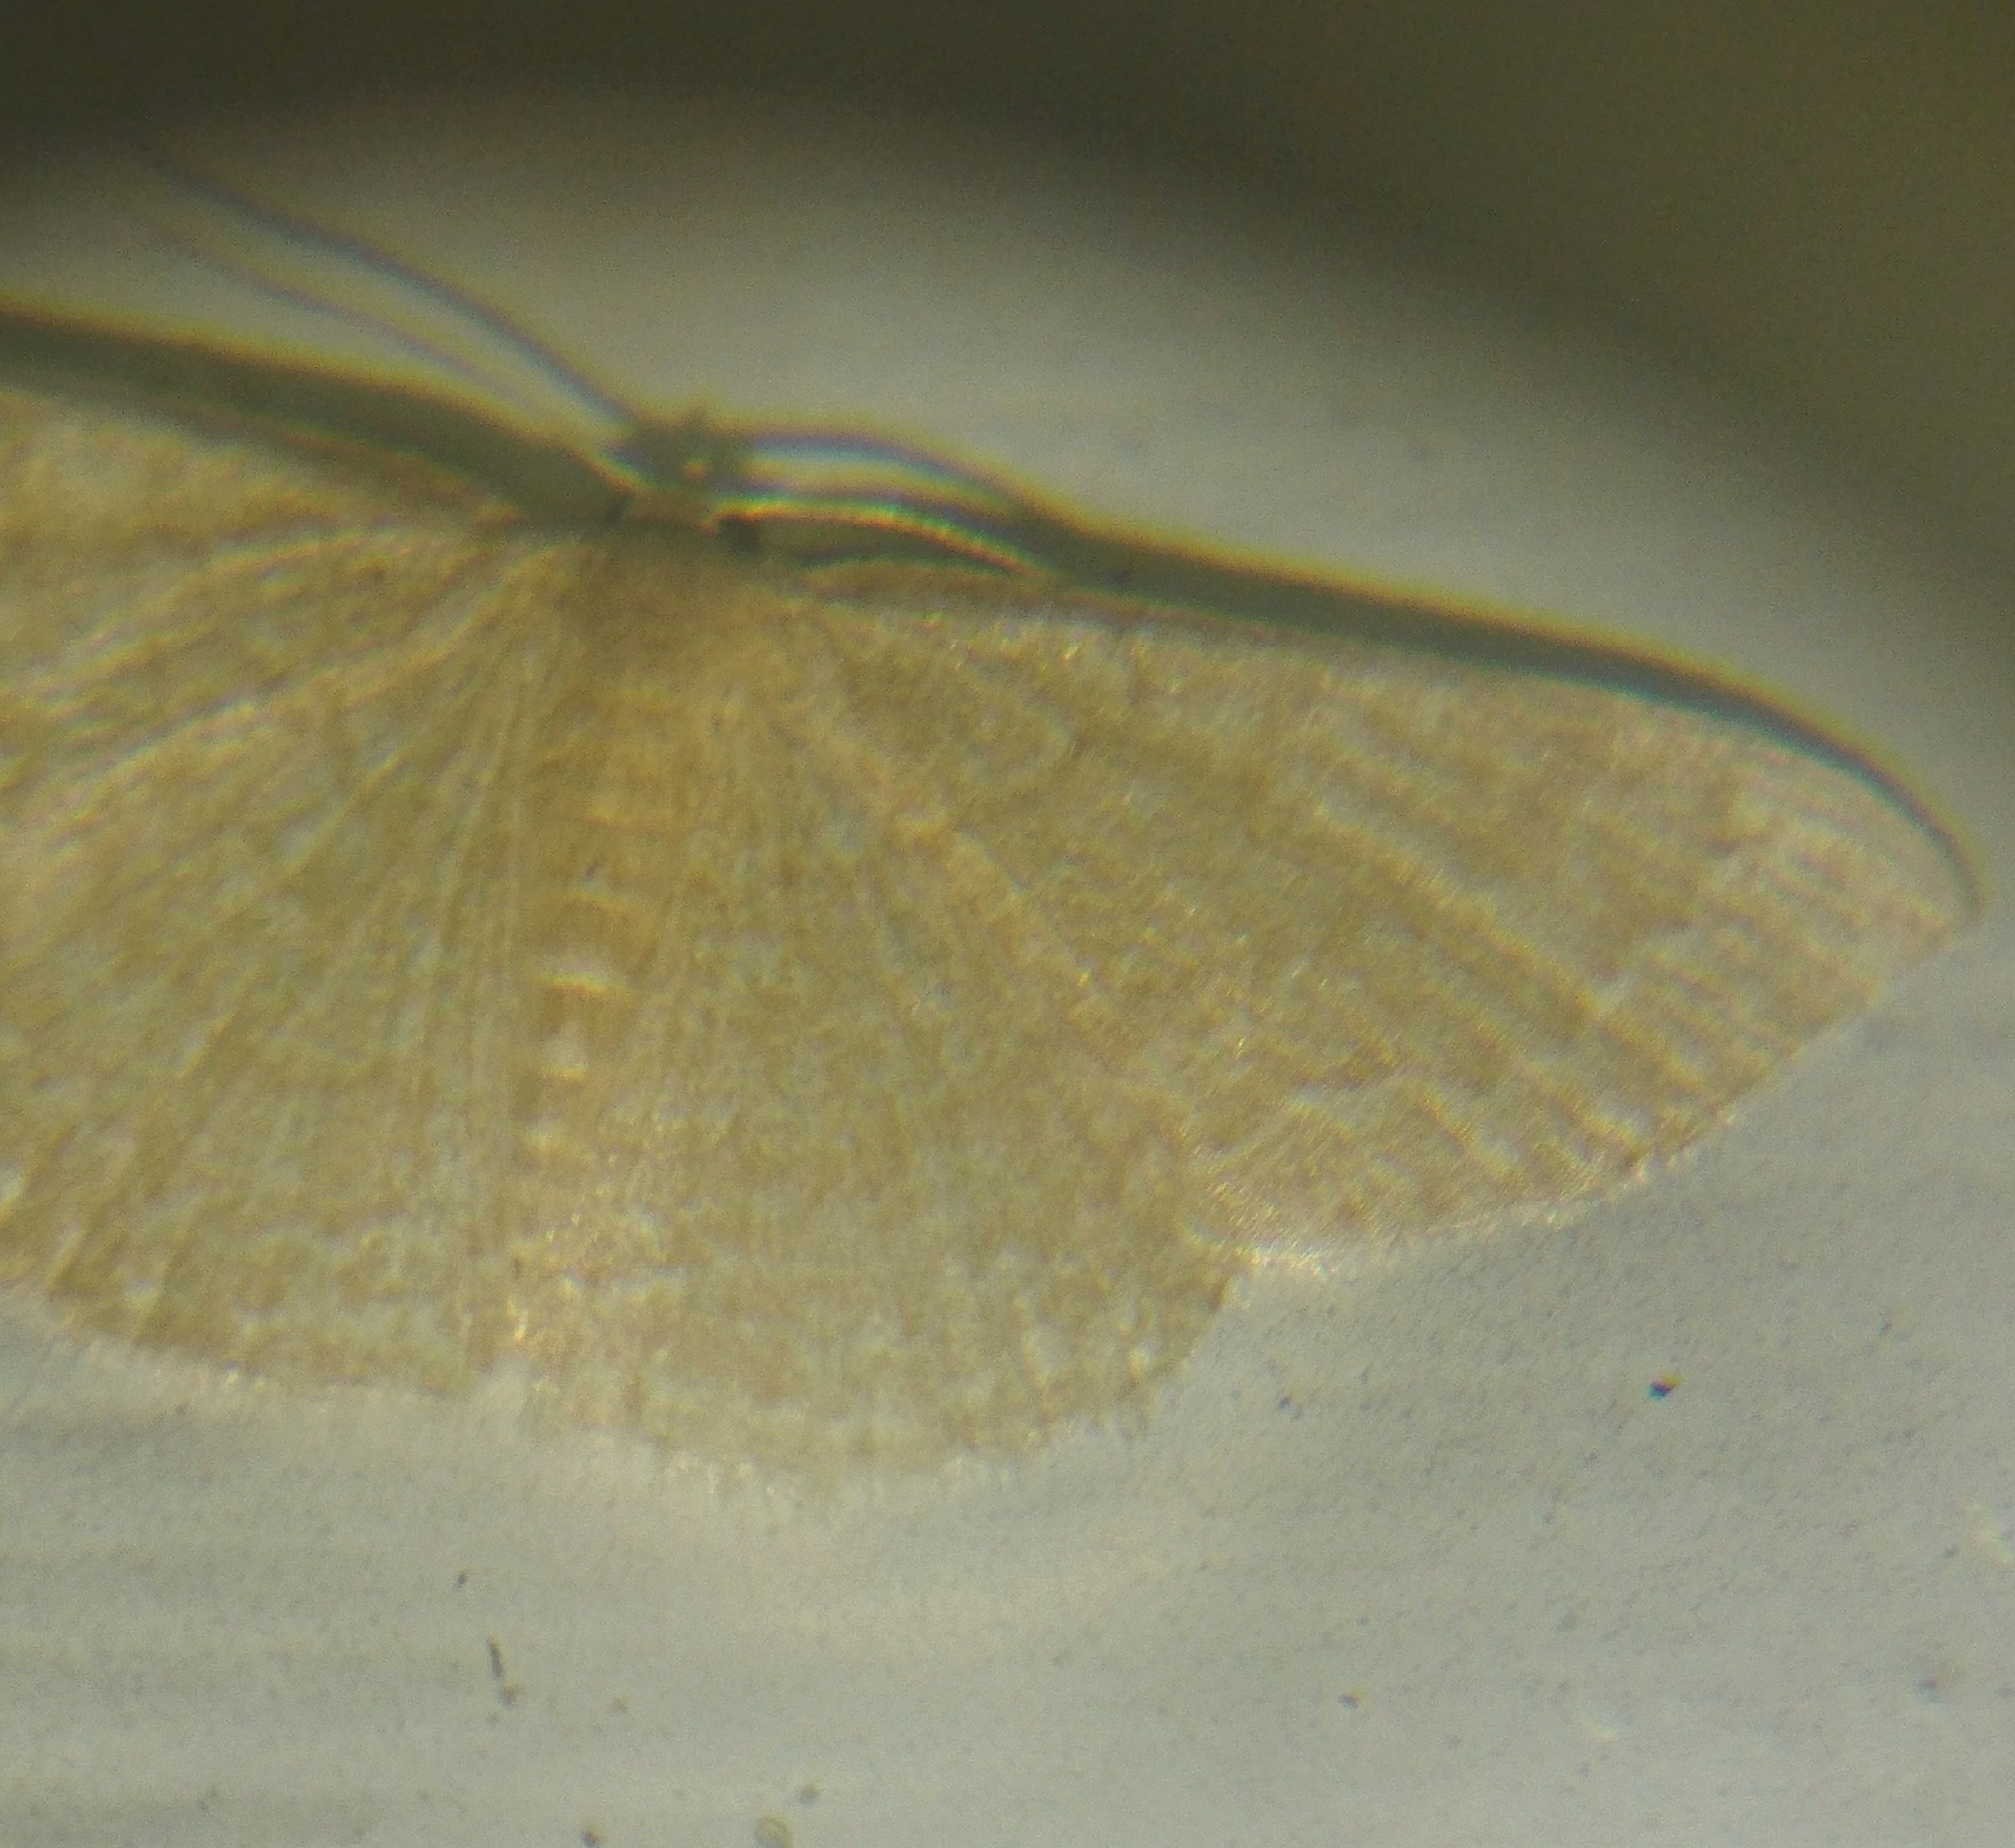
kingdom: Animalia
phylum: Arthropoda
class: Insecta
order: Lepidoptera
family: Geometridae
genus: Pleuroprucha
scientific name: Pleuroprucha insulsaria
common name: Common tan wave
